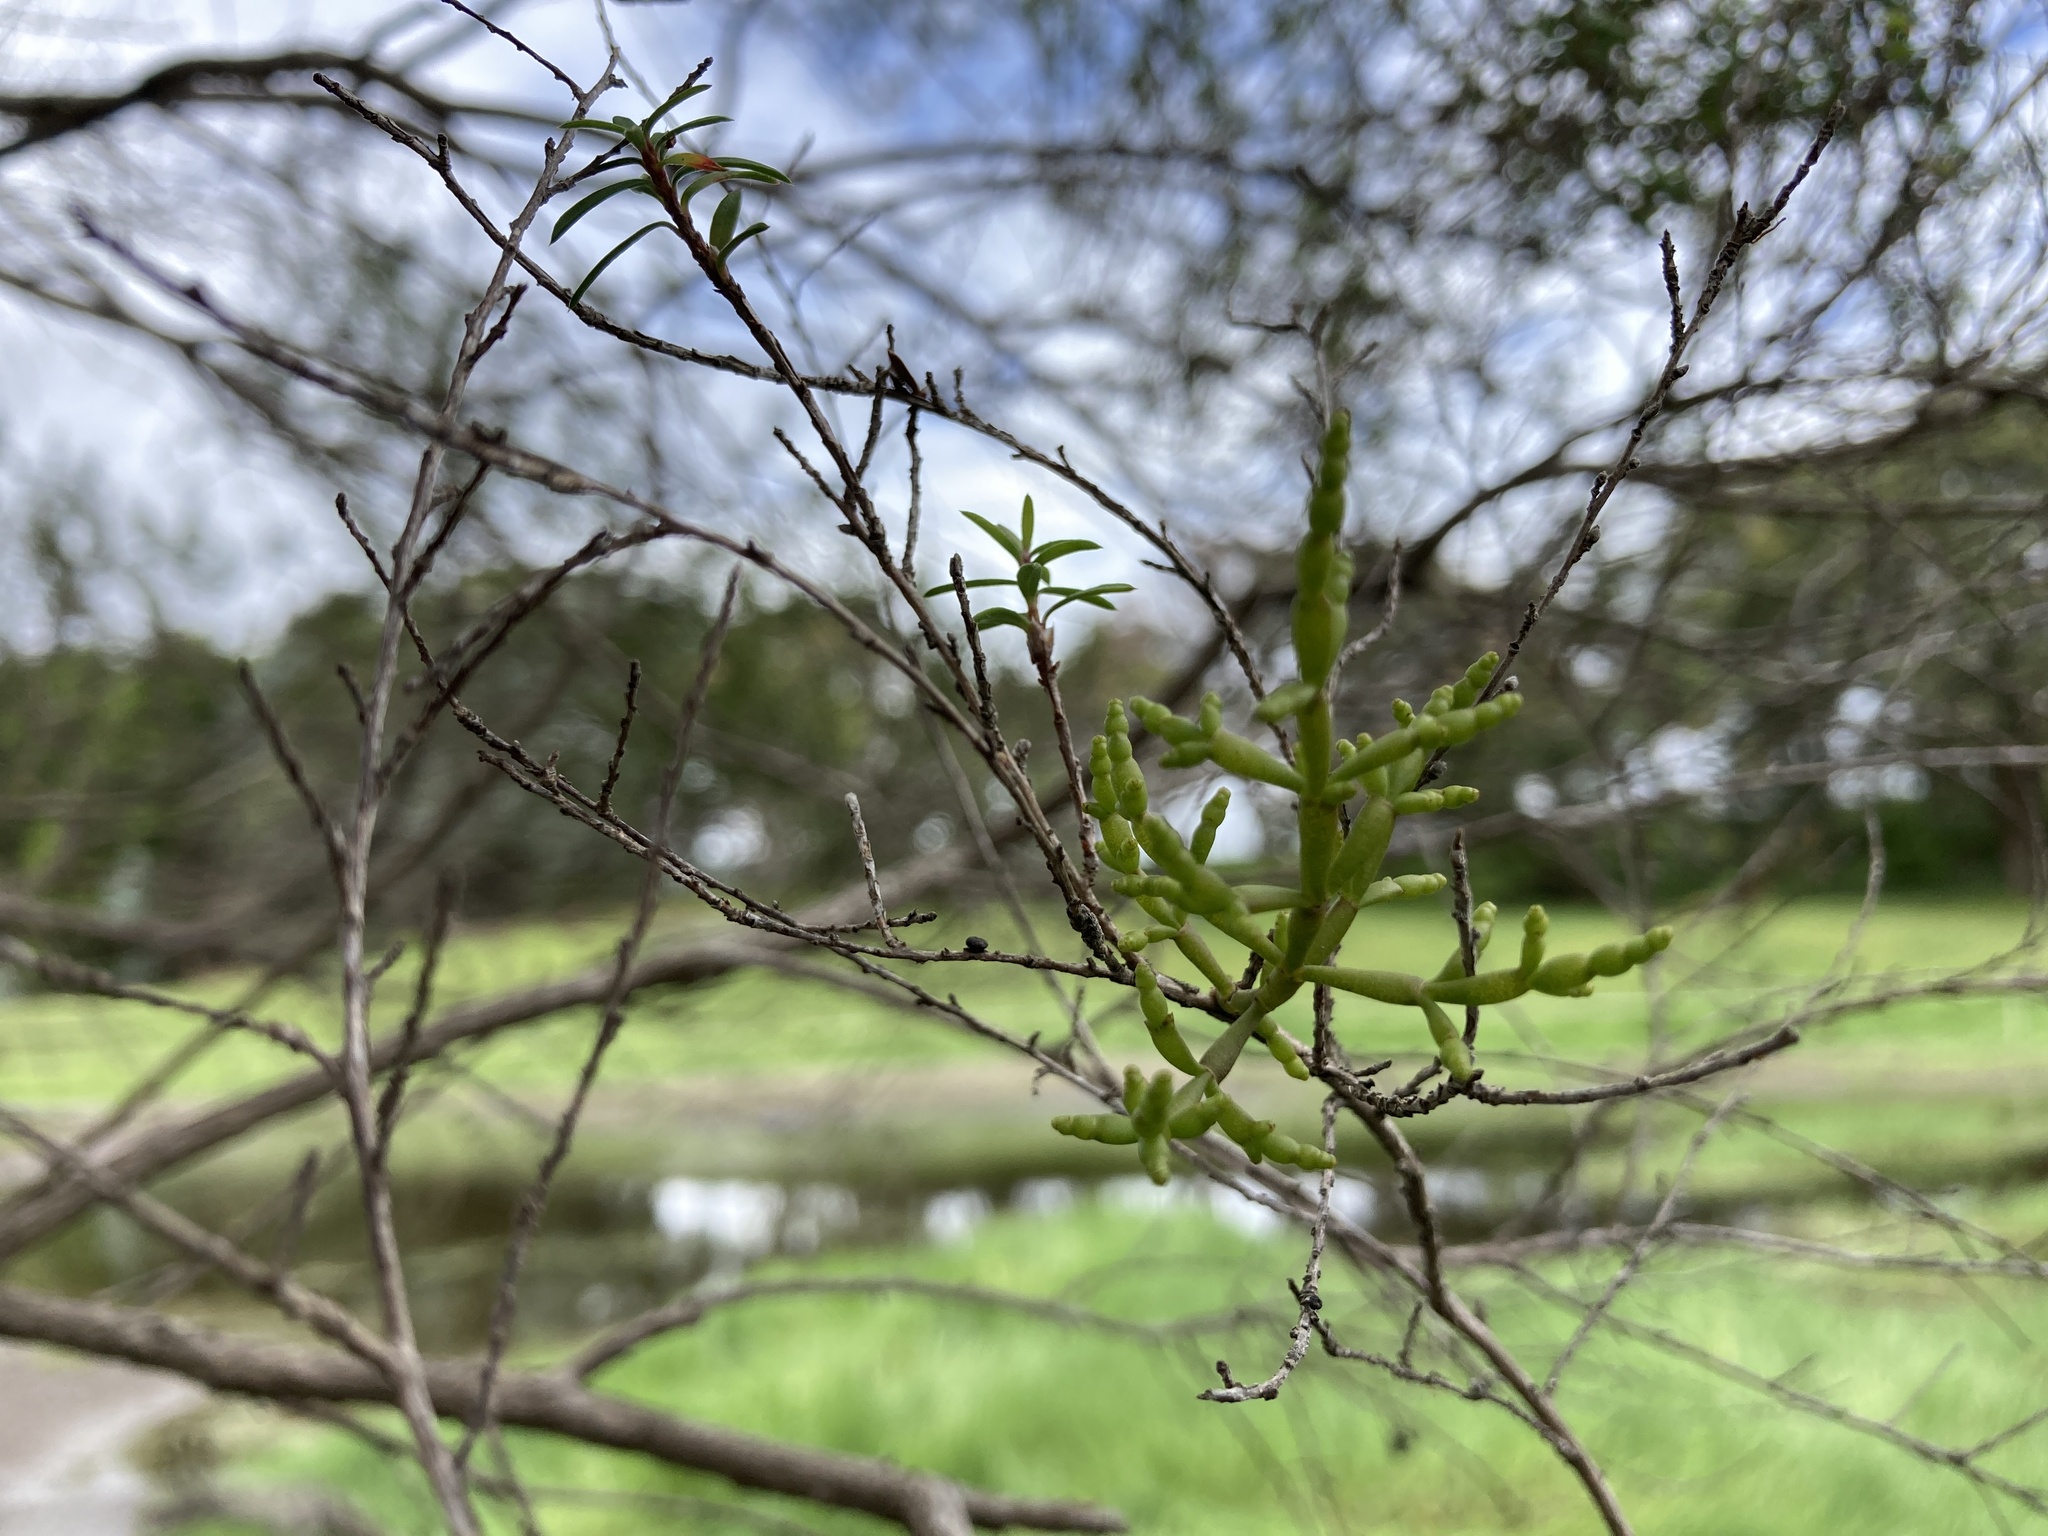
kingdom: Plantae
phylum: Tracheophyta
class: Magnoliopsida
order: Santalales
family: Viscaceae
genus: Korthalsella
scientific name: Korthalsella salicornioides
